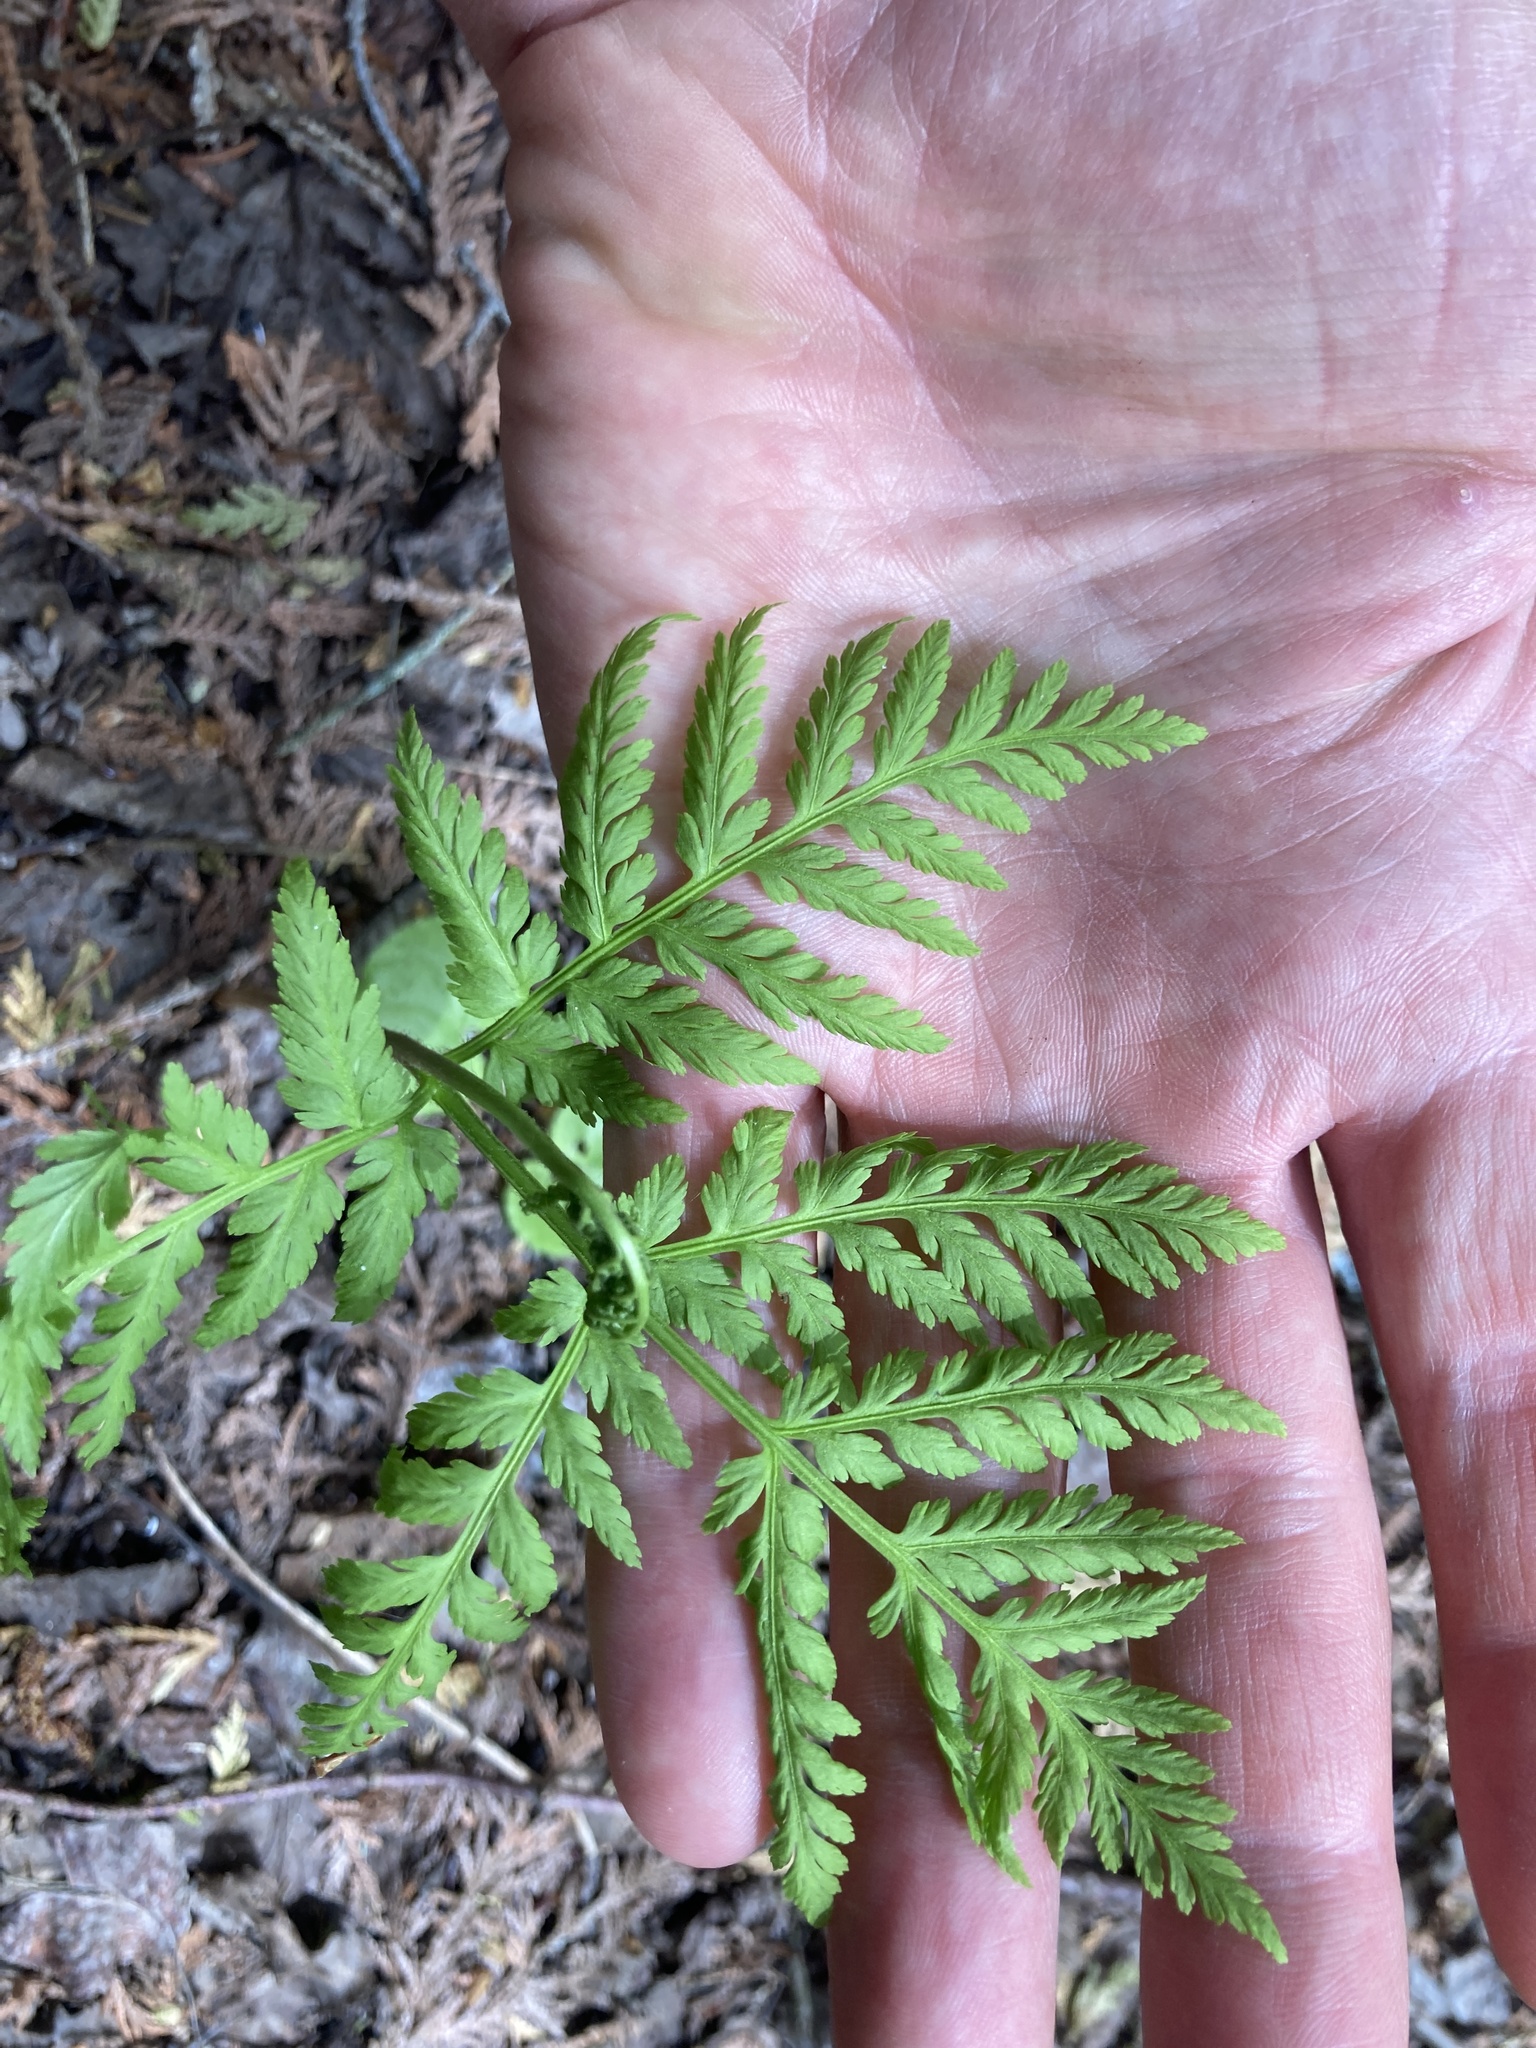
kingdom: Plantae
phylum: Tracheophyta
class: Polypodiopsida
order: Ophioglossales
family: Ophioglossaceae
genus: Botrypus
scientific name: Botrypus virginianus
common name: Common grapefern
